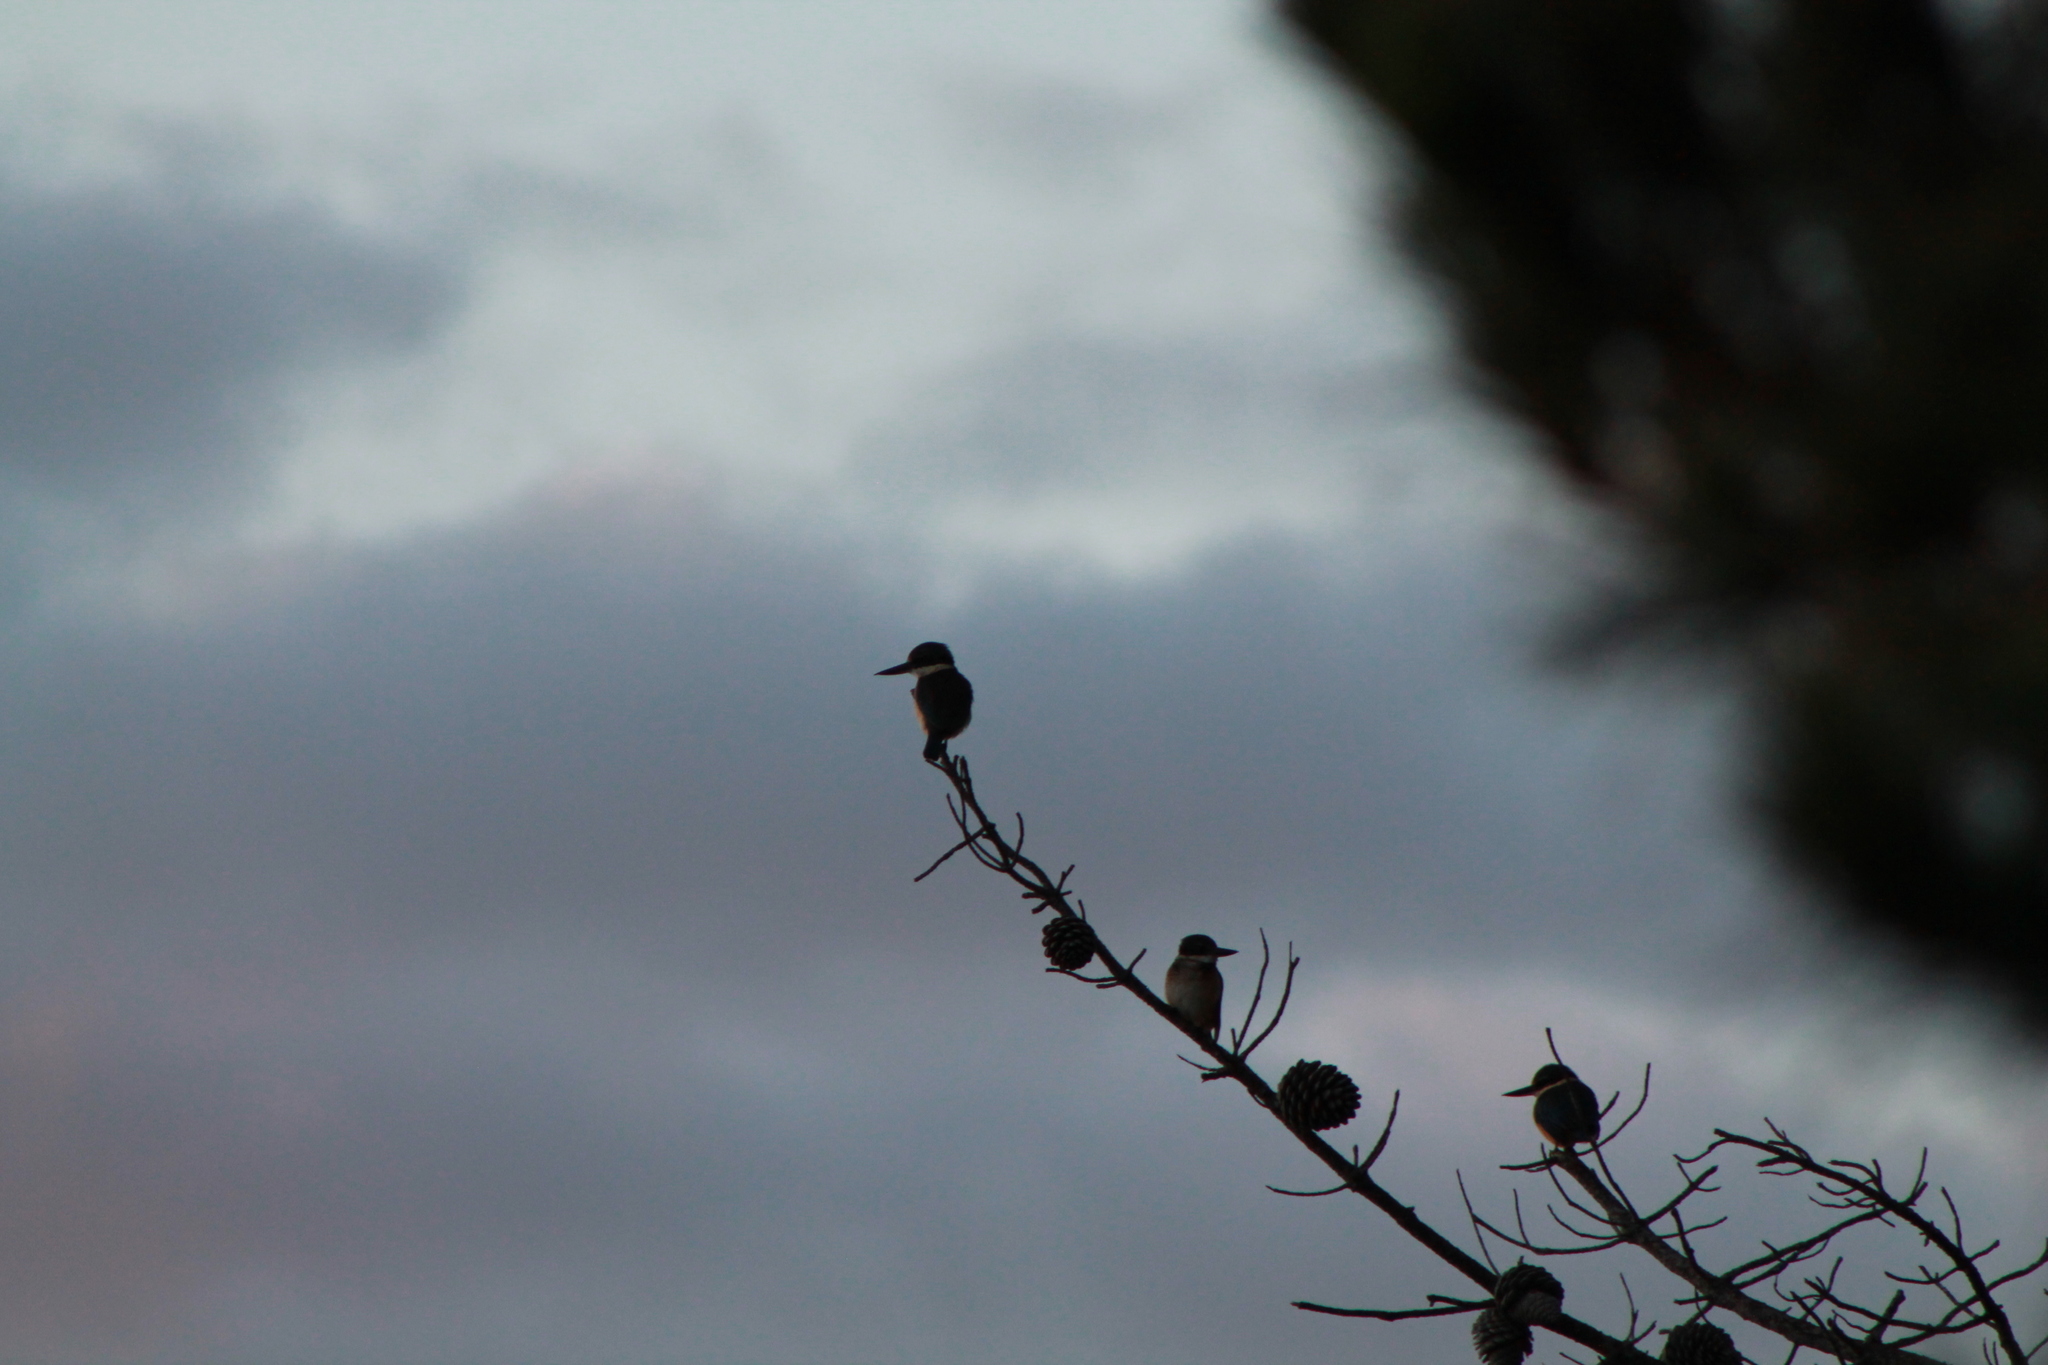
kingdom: Animalia
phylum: Chordata
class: Aves
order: Coraciiformes
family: Alcedinidae
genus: Todiramphus
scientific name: Todiramphus sanctus
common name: Sacred kingfisher
